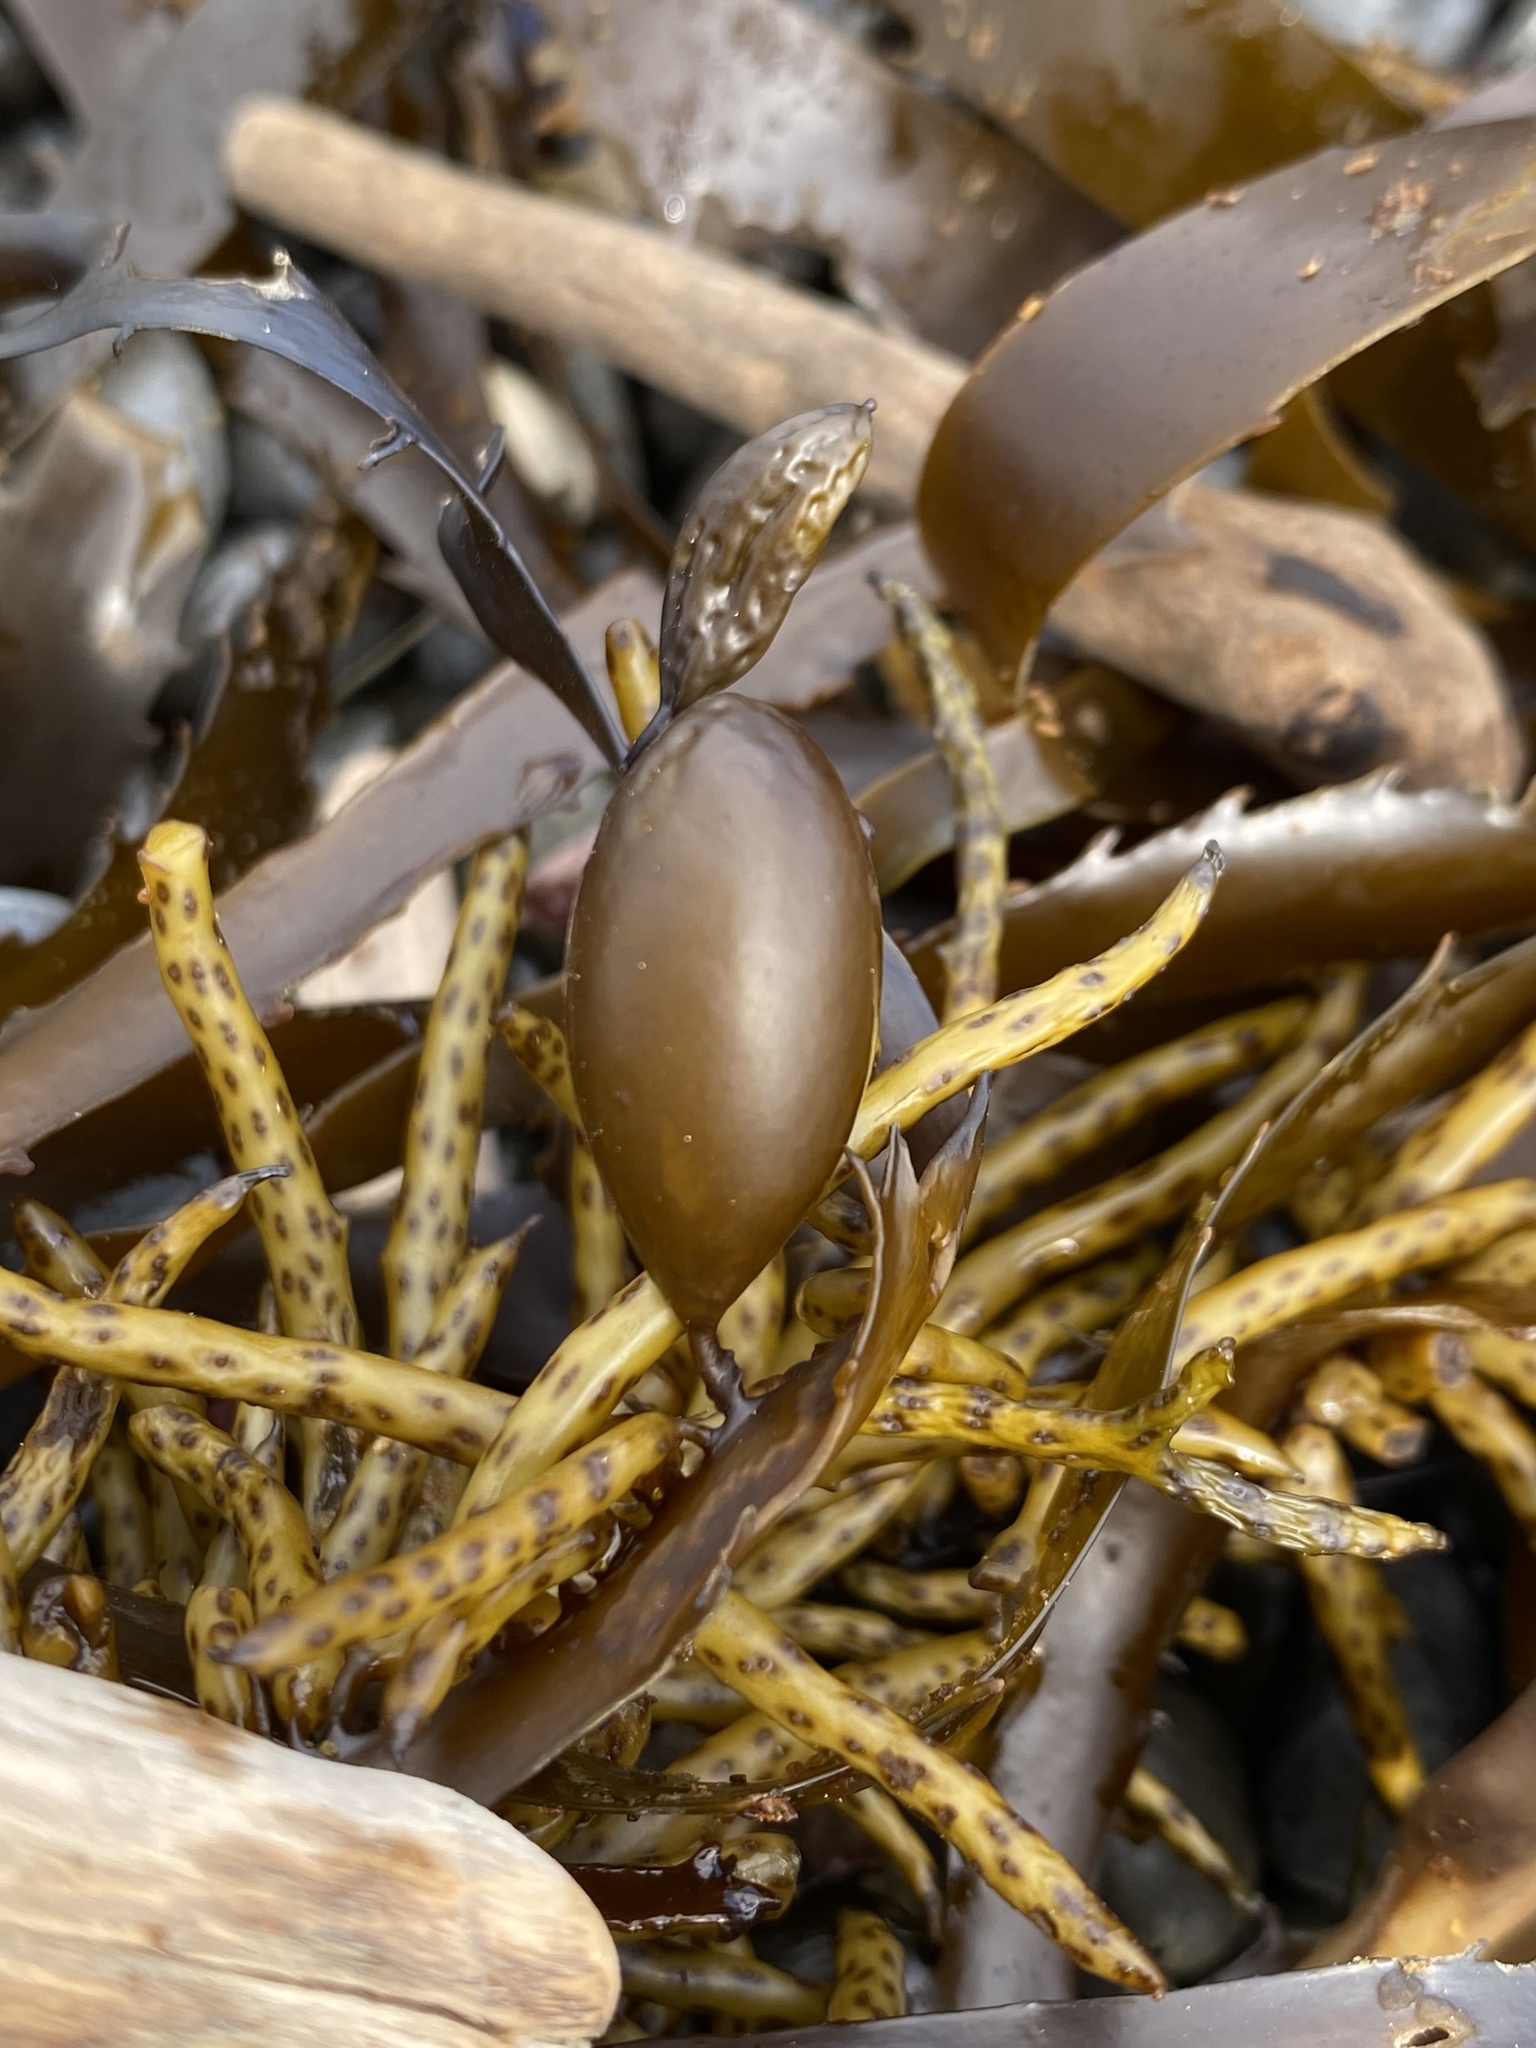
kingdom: Chromista
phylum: Ochrophyta
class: Phaeophyceae
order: Fucales
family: Seirococcaceae
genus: Marginariella
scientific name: Marginariella boryana
